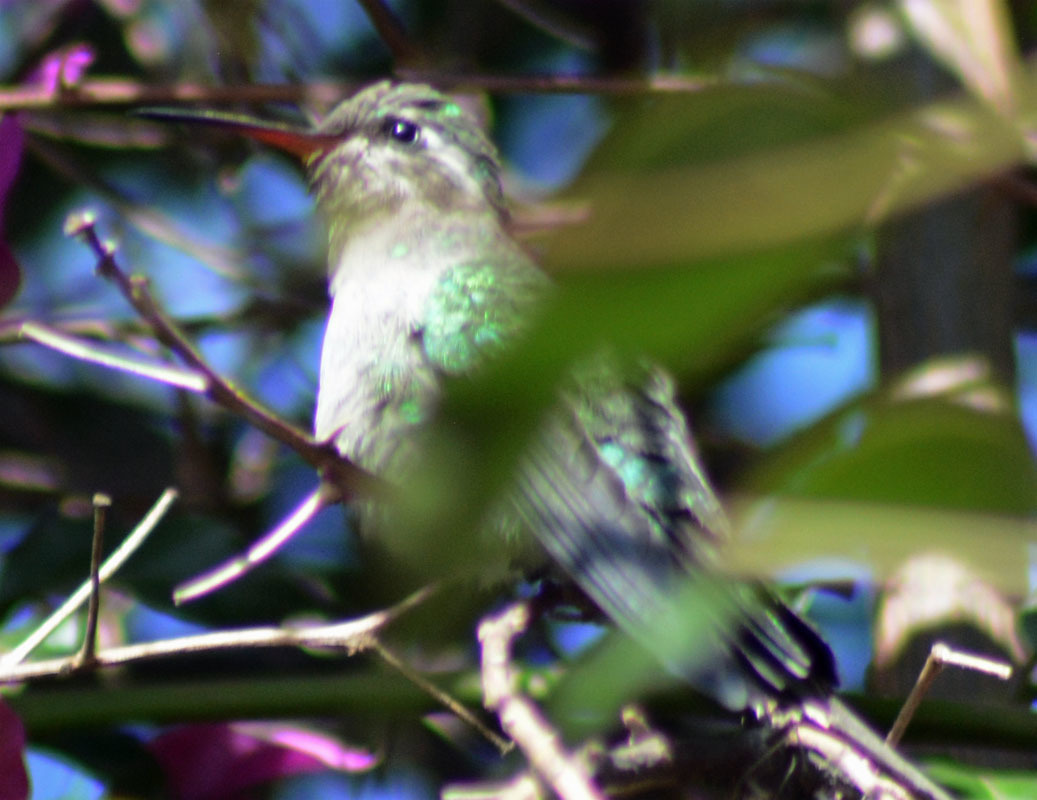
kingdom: Animalia
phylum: Chordata
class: Aves
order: Apodiformes
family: Trochilidae
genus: Cynanthus
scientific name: Cynanthus latirostris
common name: Broad-billed hummingbird
